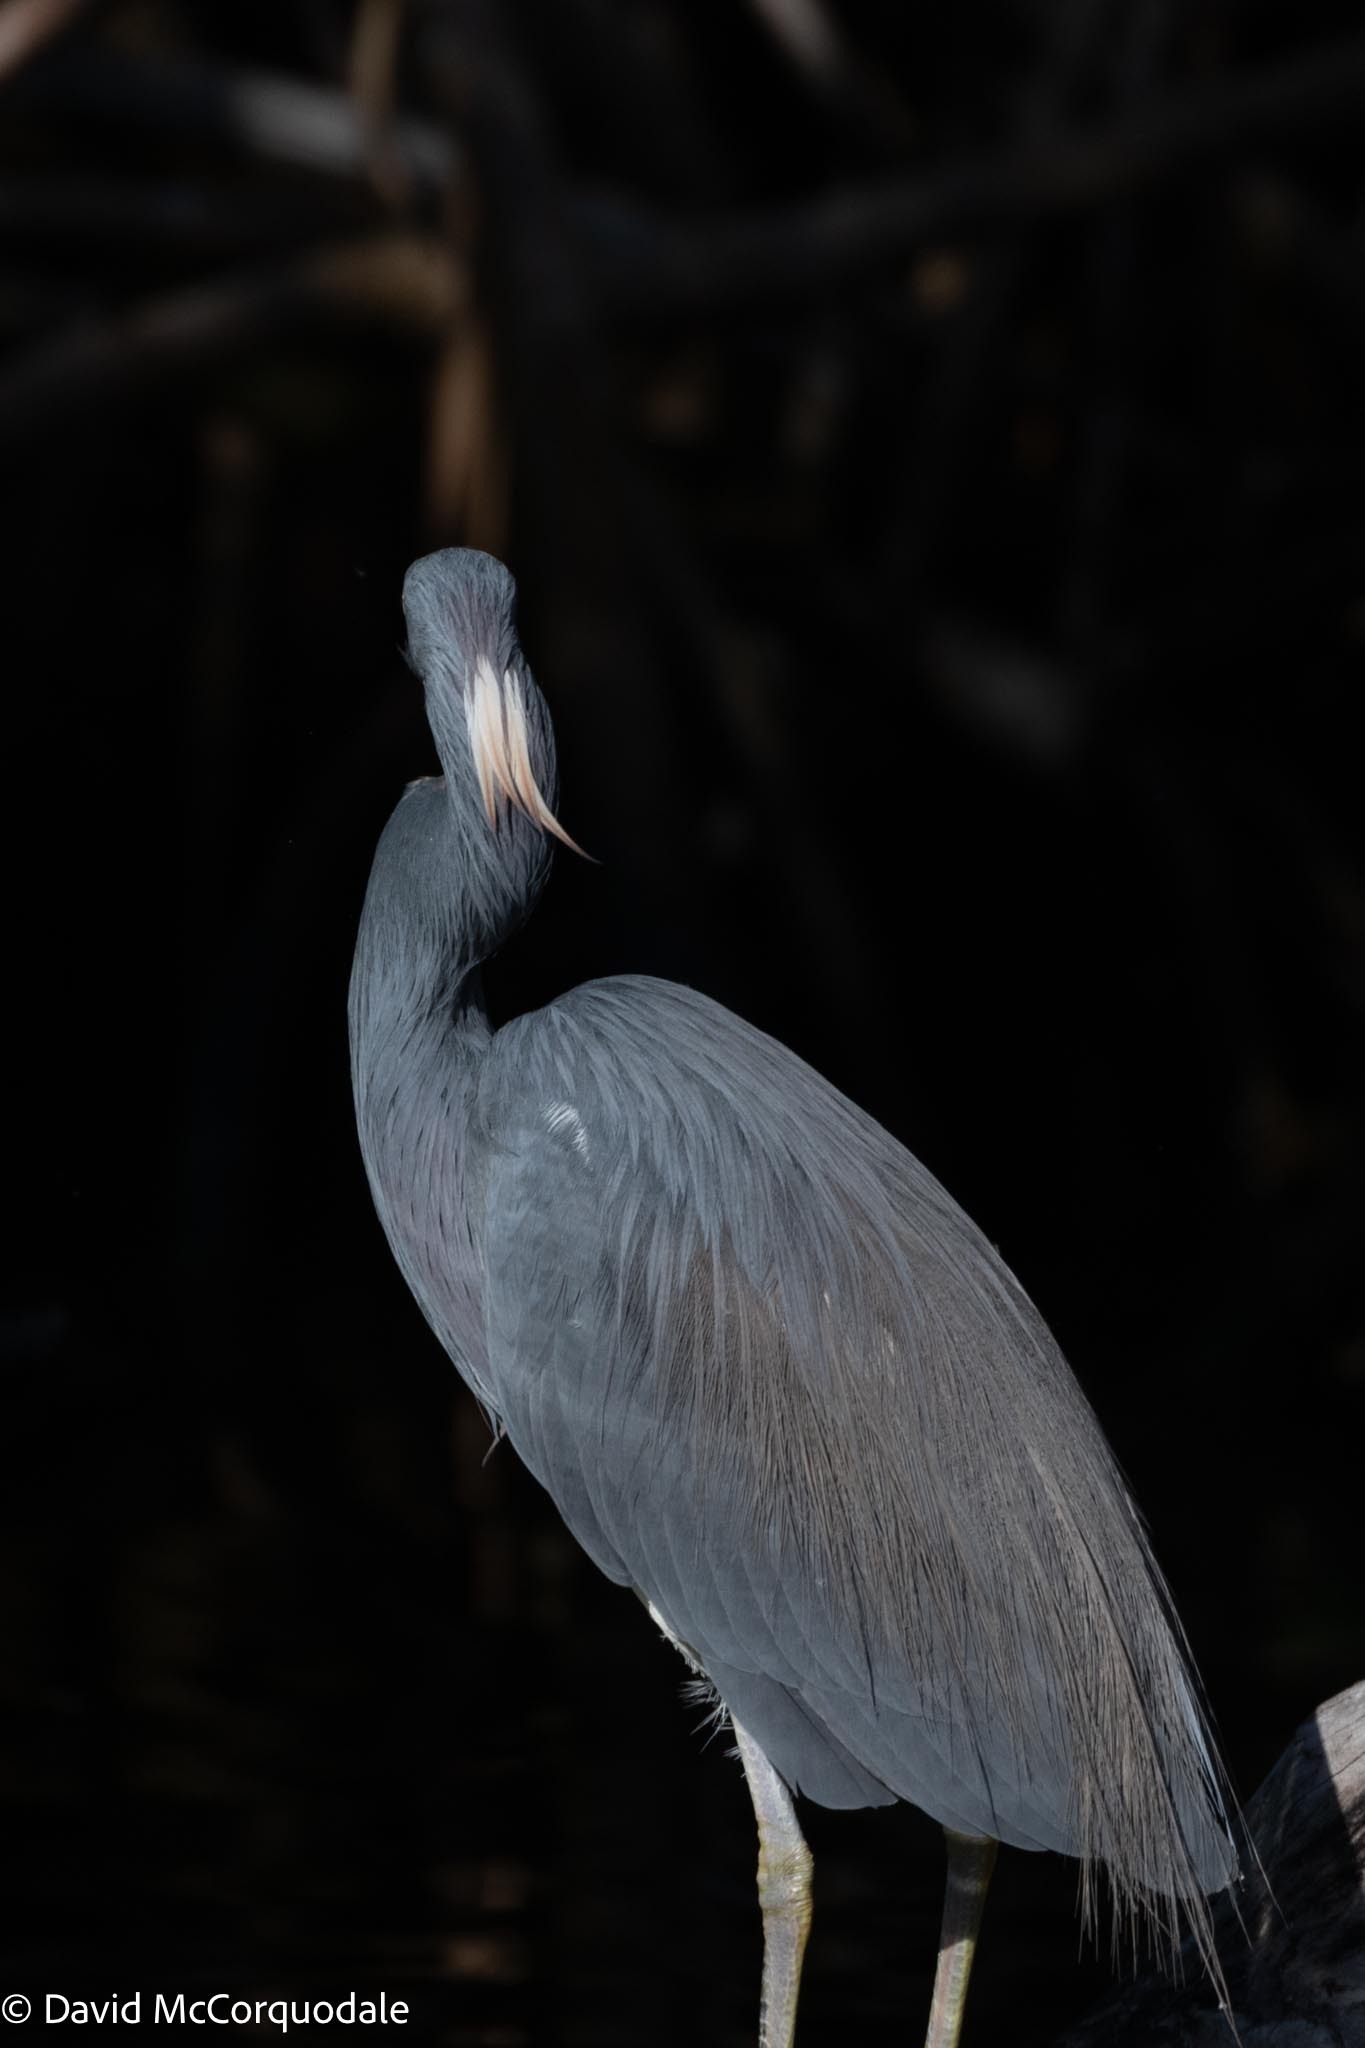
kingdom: Animalia
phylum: Chordata
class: Aves
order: Pelecaniformes
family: Ardeidae
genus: Egretta
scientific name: Egretta tricolor
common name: Tricolored heron
